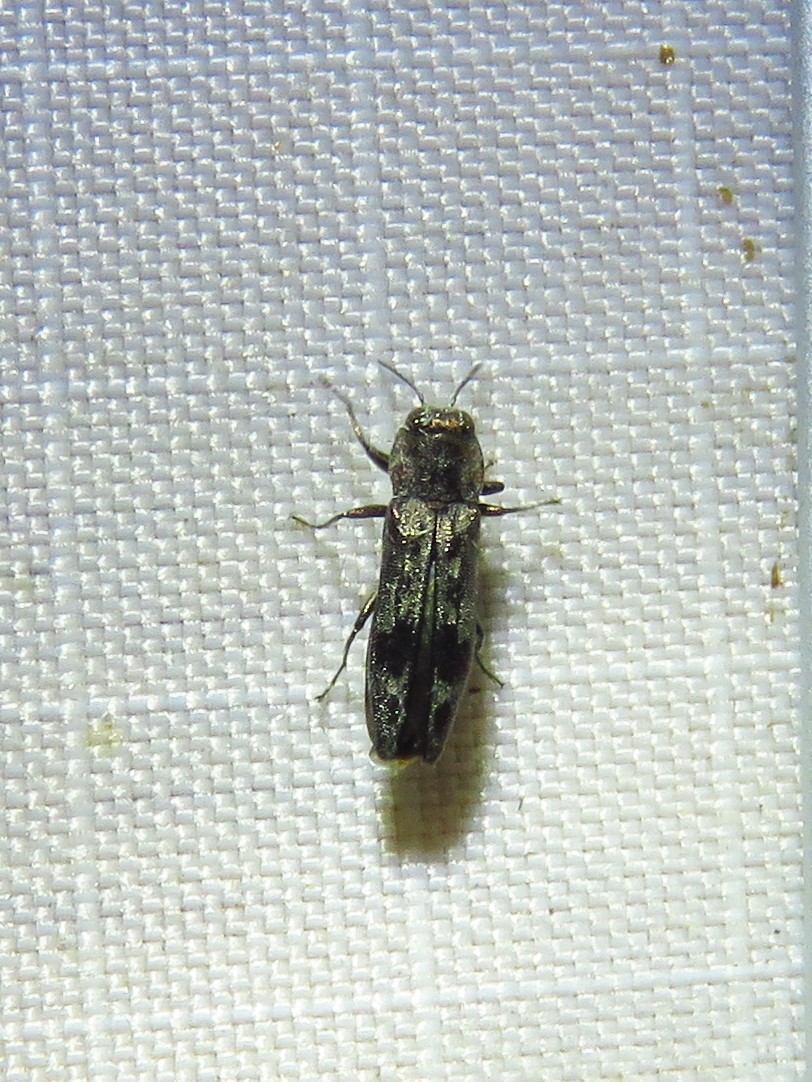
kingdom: Animalia
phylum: Arthropoda
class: Insecta
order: Coleoptera
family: Buprestidae
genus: Agrilus
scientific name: Agrilus lecontei
